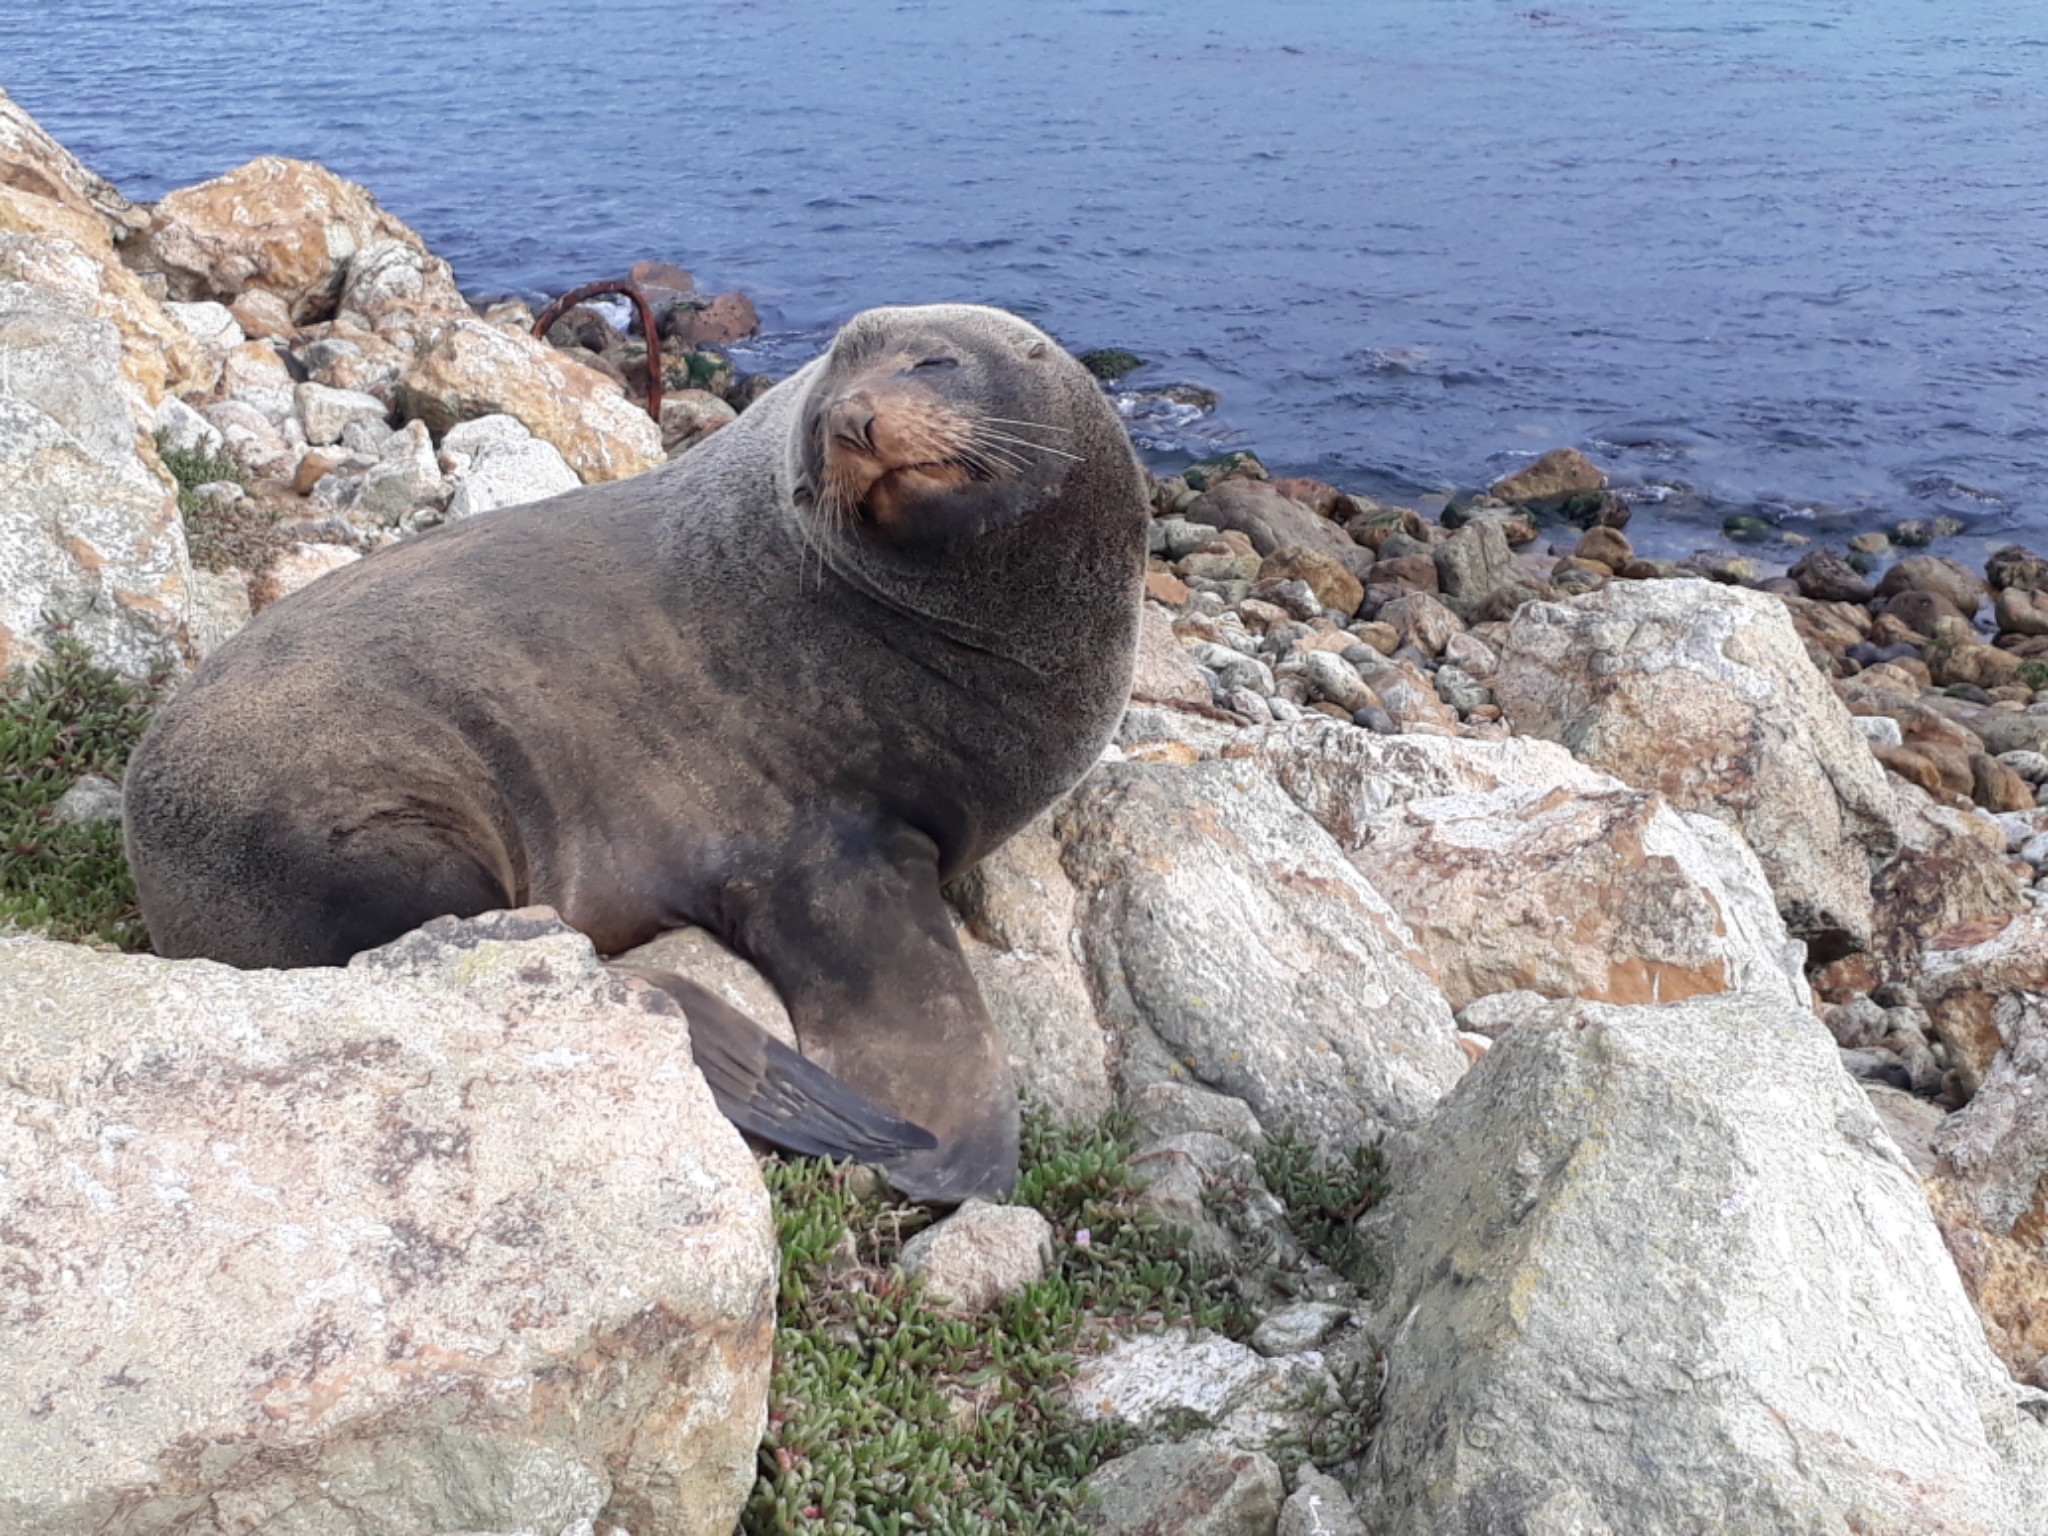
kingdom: Animalia
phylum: Chordata
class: Mammalia
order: Carnivora
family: Otariidae
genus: Arctocephalus
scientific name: Arctocephalus forsteri
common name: New zealand fur seal
